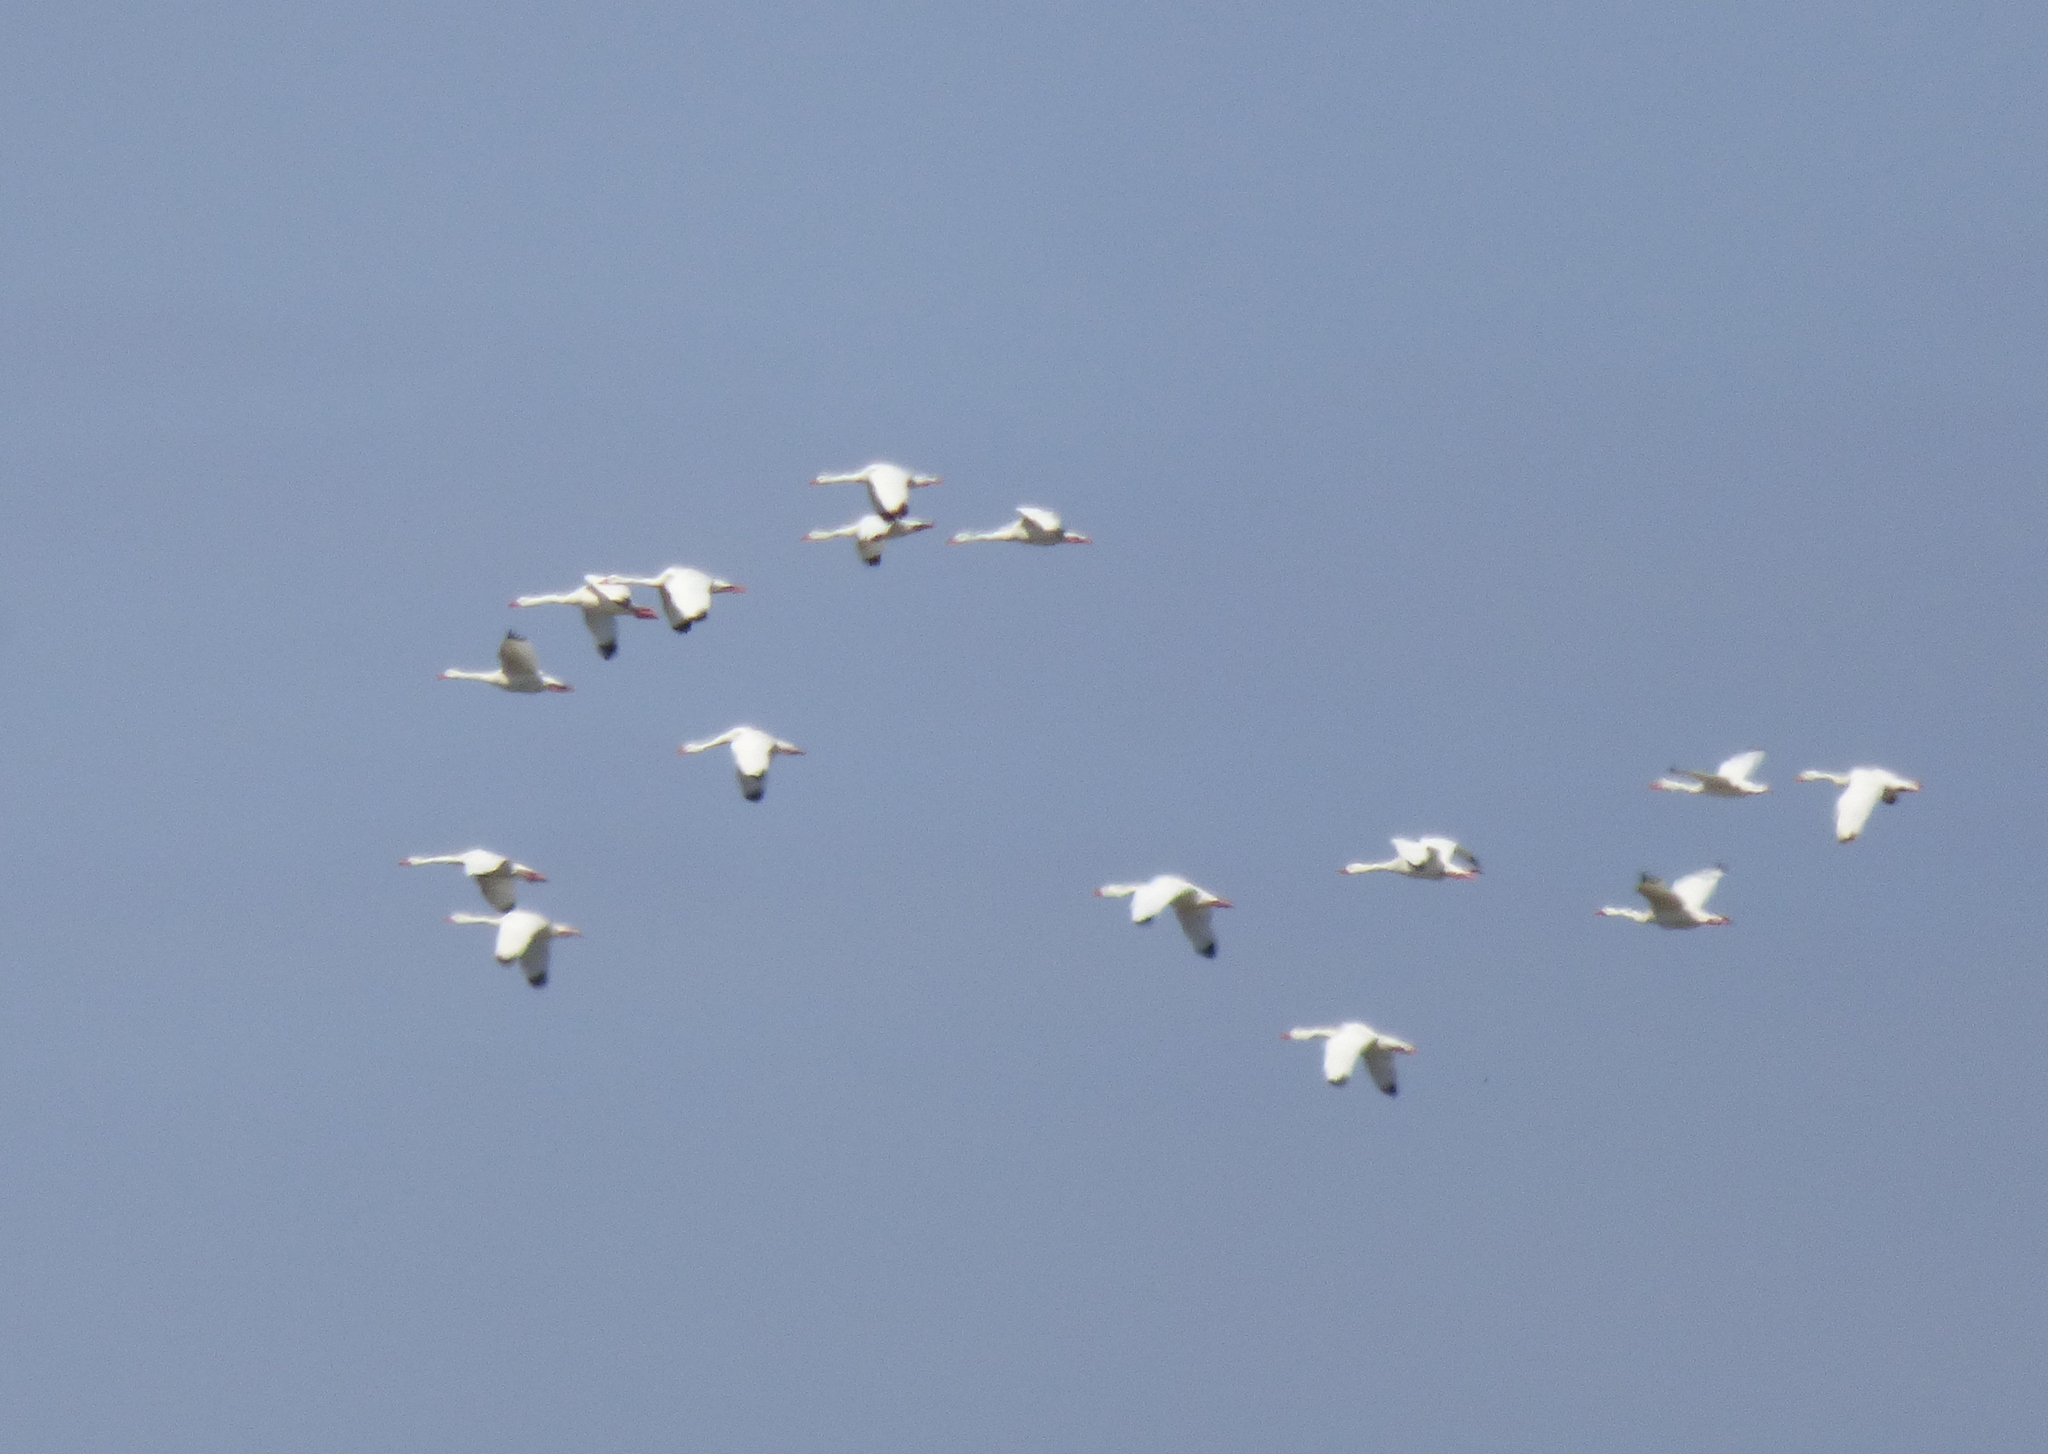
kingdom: Animalia
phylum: Chordata
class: Aves
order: Anseriformes
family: Anatidae
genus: Coscoroba
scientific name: Coscoroba coscoroba
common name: Coscoroba swan
